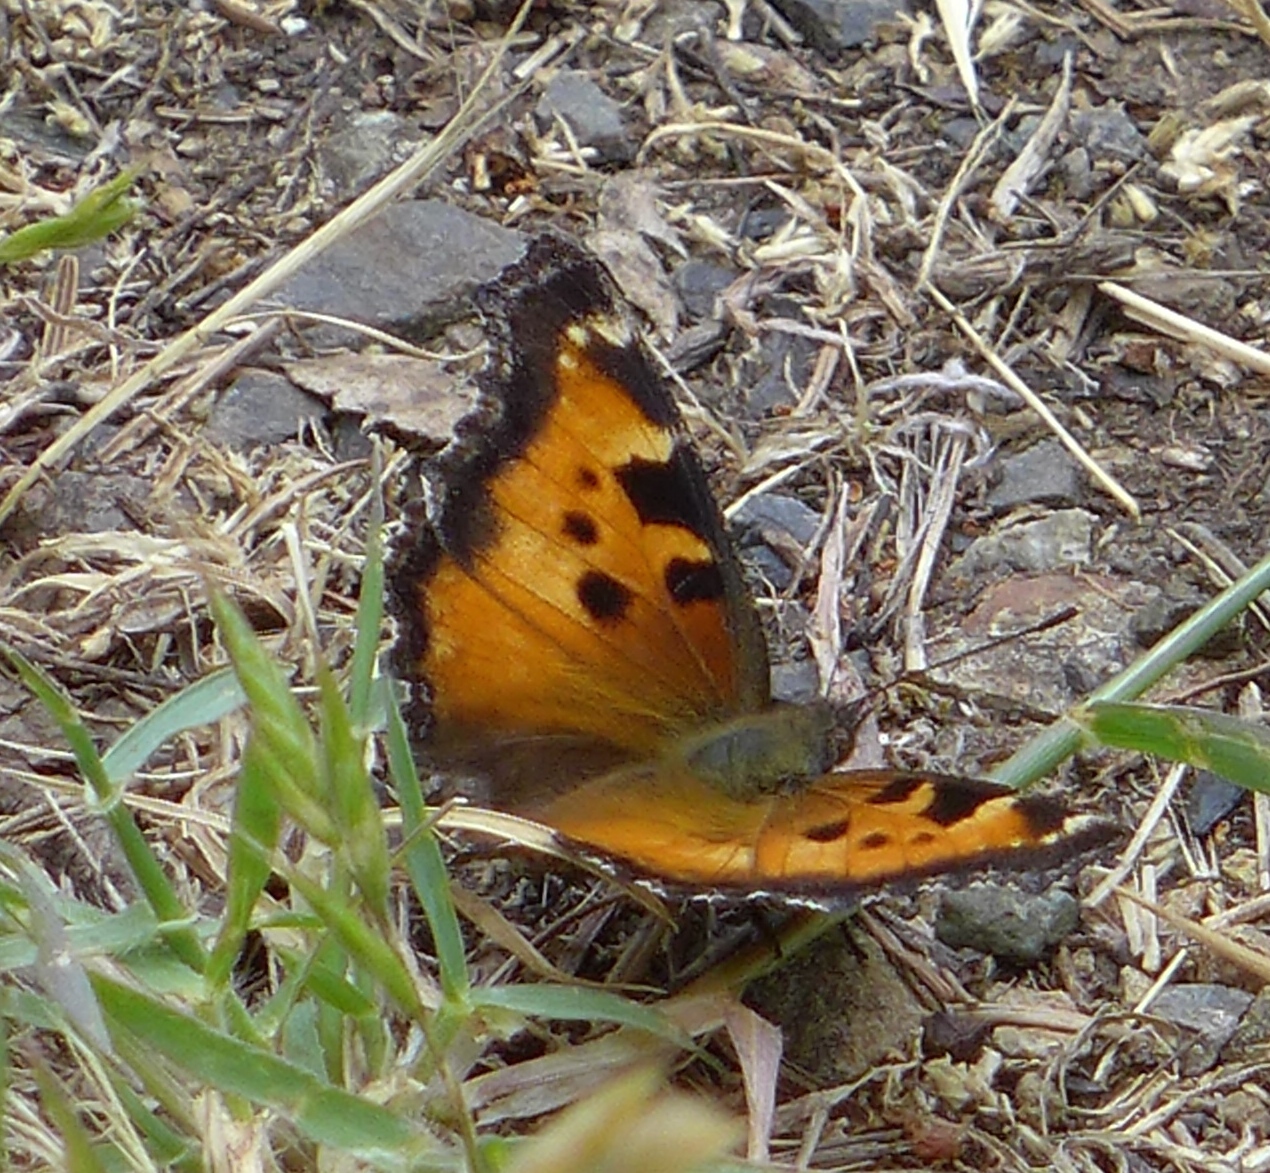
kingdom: Animalia
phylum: Arthropoda
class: Insecta
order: Lepidoptera
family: Nymphalidae
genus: Nymphalis
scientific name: Nymphalis californica
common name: California tortoiseshell
